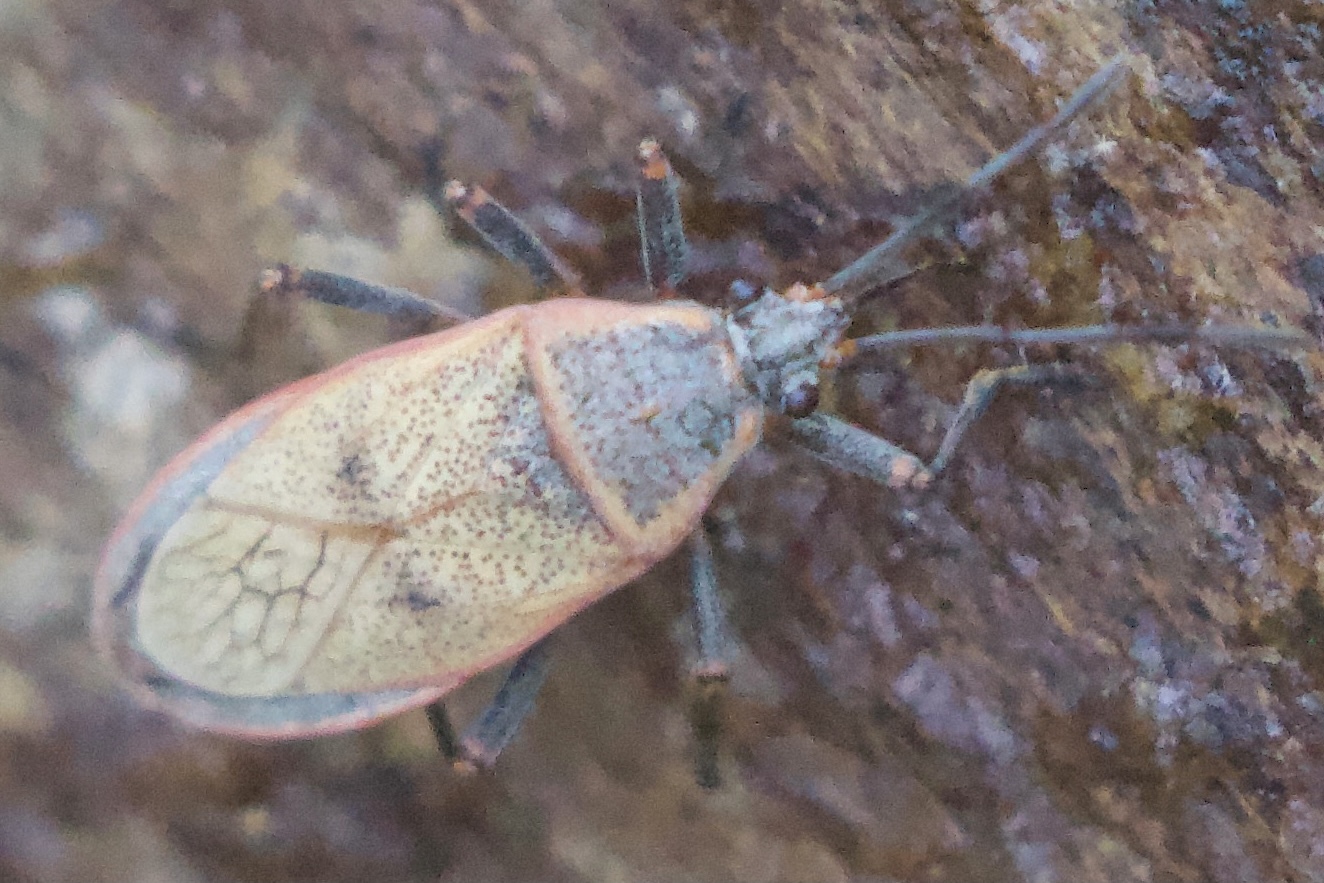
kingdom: Animalia
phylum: Arthropoda
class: Insecta
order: Hemiptera
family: Largidae
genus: Largus
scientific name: Largus maculatus
